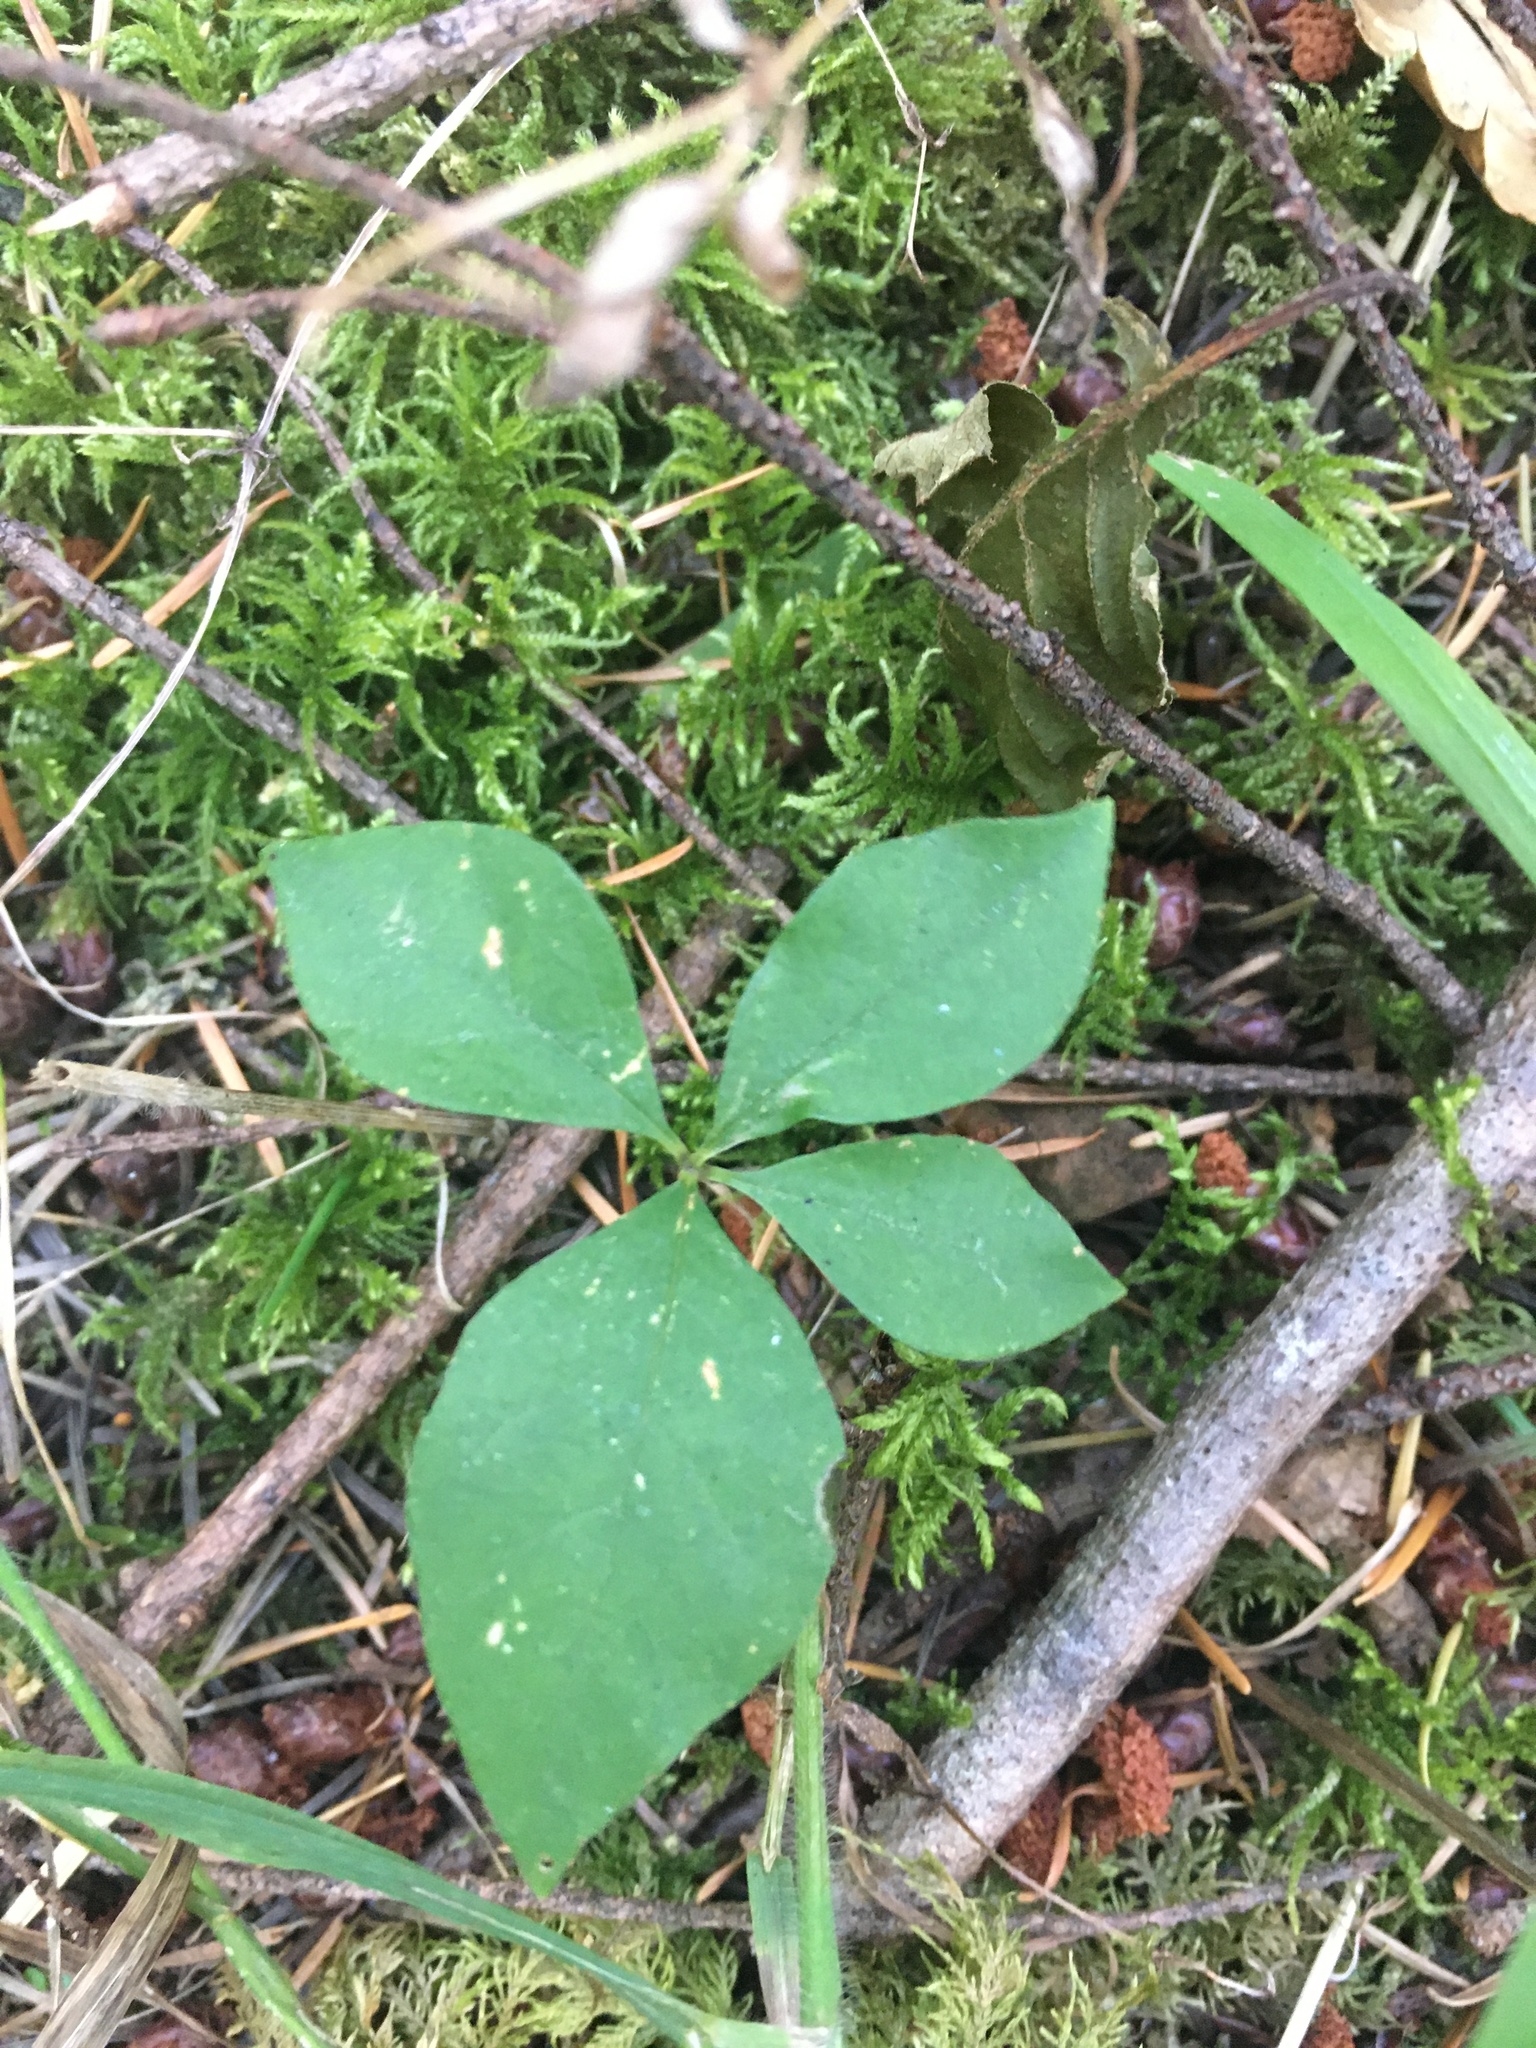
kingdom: Plantae
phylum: Tracheophyta
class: Magnoliopsida
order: Ericales
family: Primulaceae
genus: Lysimachia
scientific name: Lysimachia latifolia
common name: Pacific starflower
